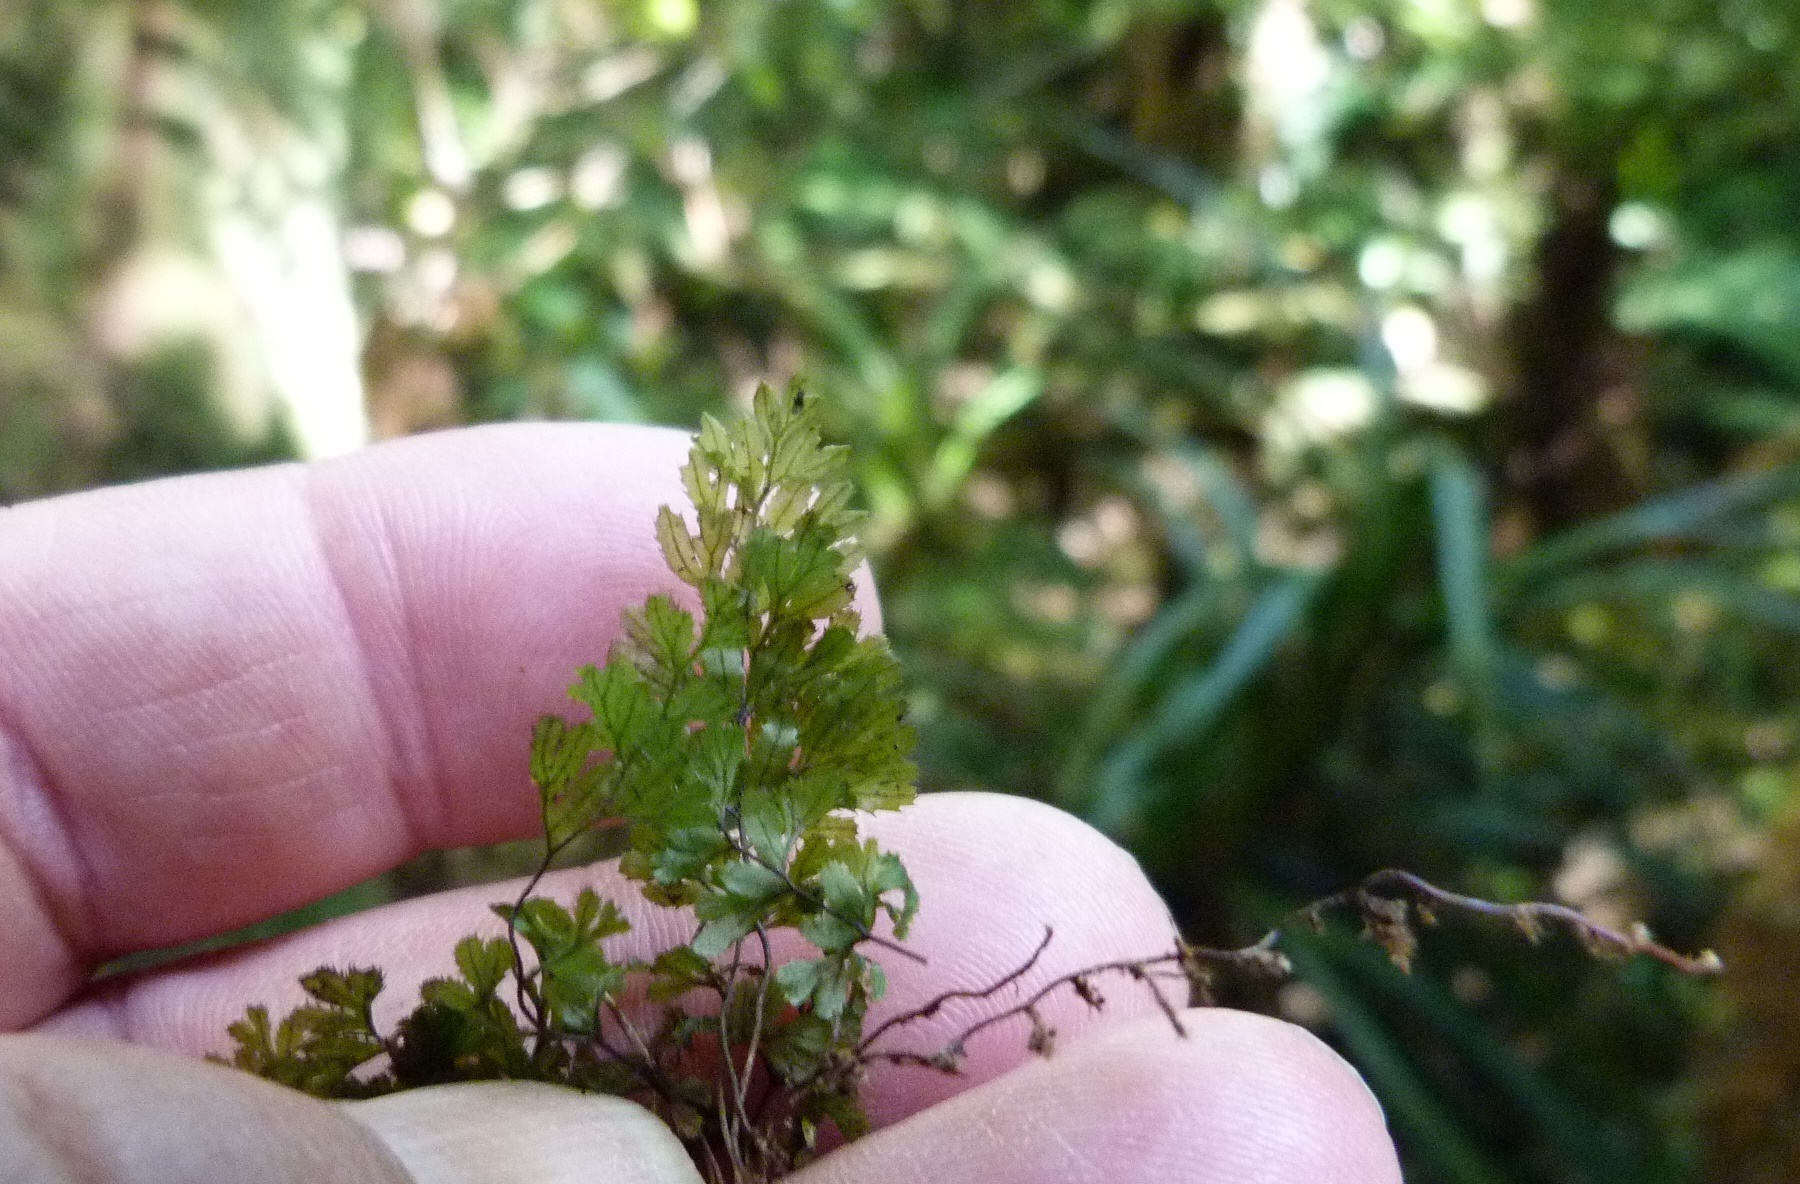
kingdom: Plantae
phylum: Tracheophyta
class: Polypodiopsida
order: Hymenophyllales
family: Hymenophyllaceae
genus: Hymenophyllum
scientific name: Hymenophyllum revolutum
